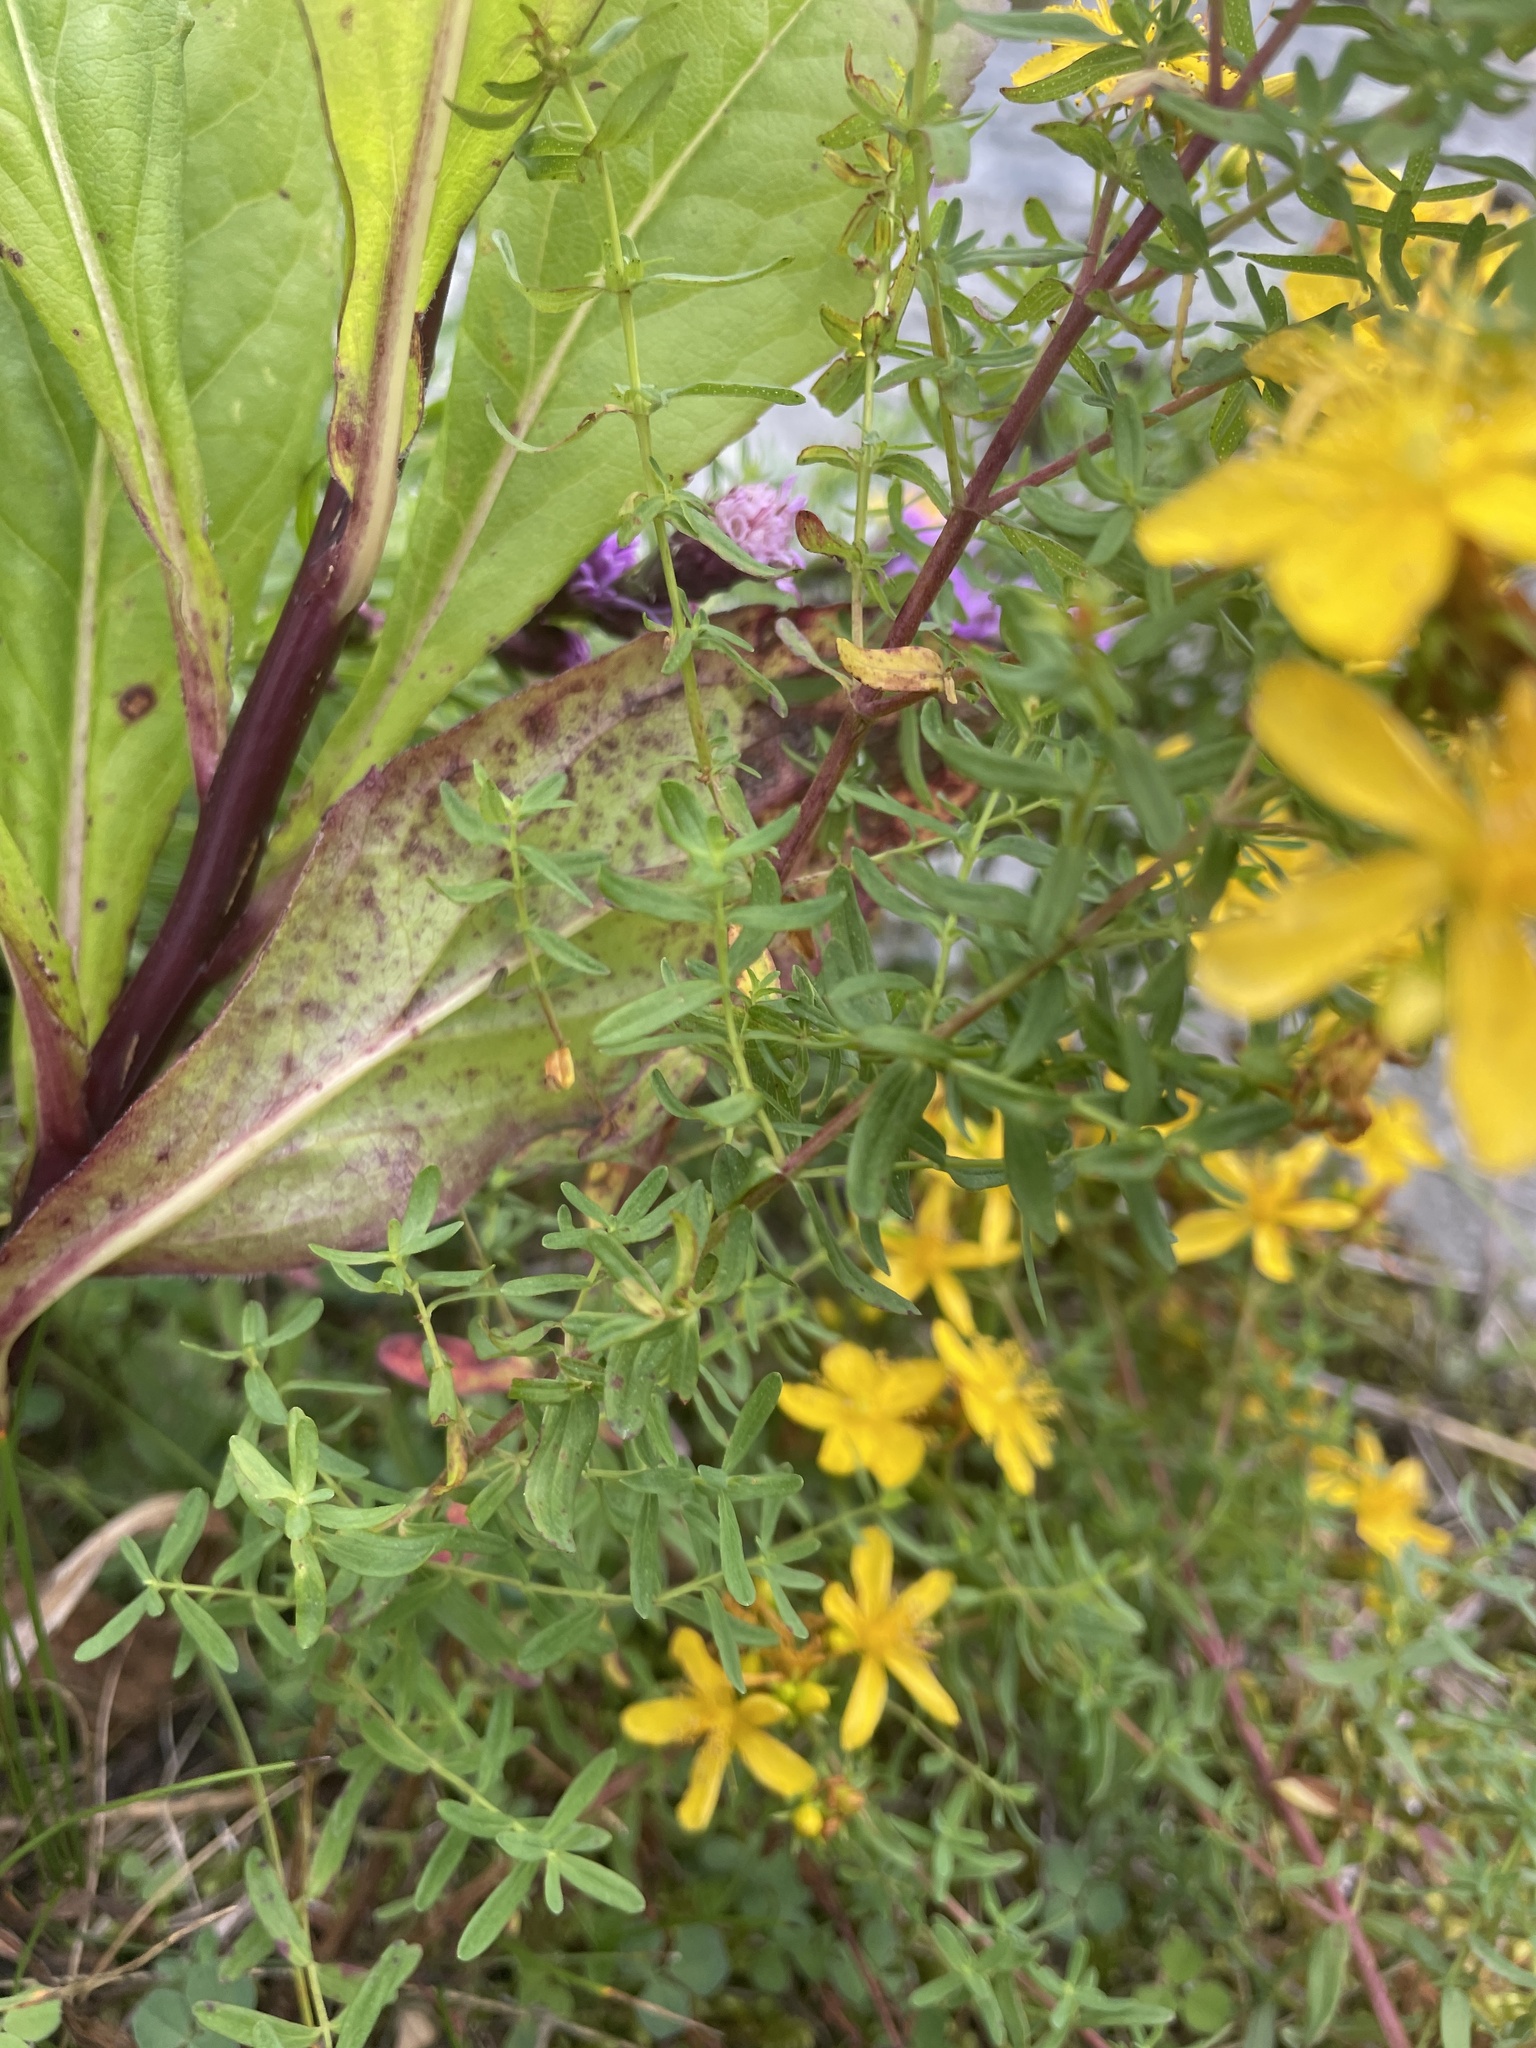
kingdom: Plantae
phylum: Tracheophyta
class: Magnoliopsida
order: Malpighiales
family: Hypericaceae
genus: Hypericum
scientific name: Hypericum perforatum
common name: Common st. johnswort
